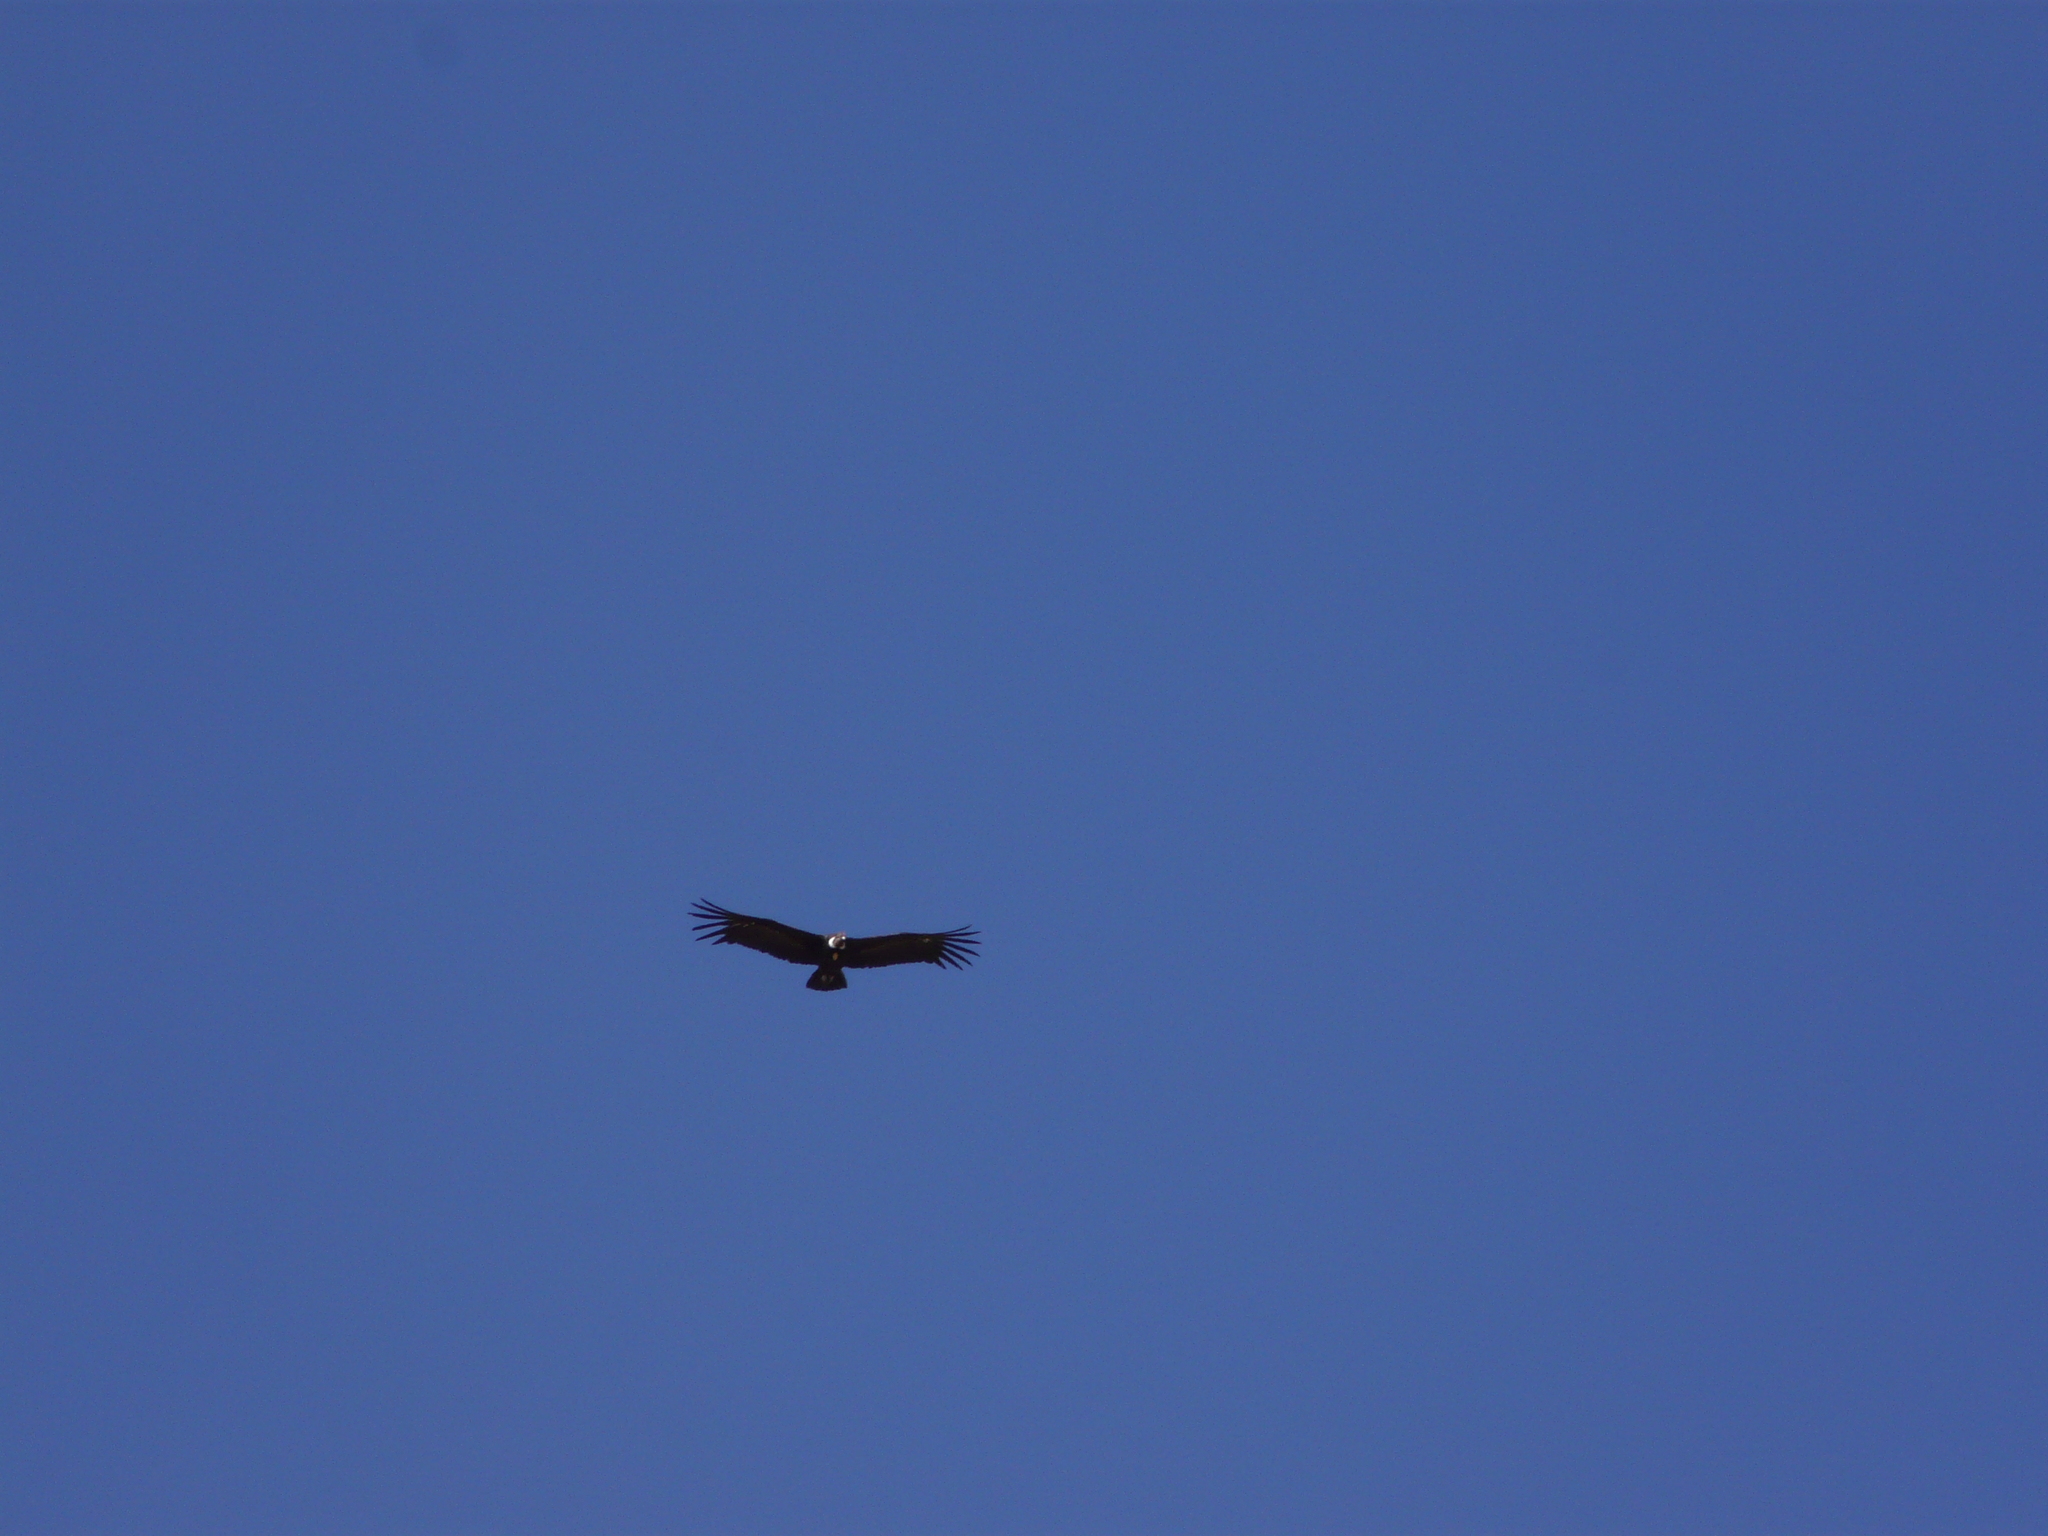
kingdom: Animalia
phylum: Chordata
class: Aves
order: Accipitriformes
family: Cathartidae
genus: Vultur
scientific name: Vultur gryphus
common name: Andean condor
